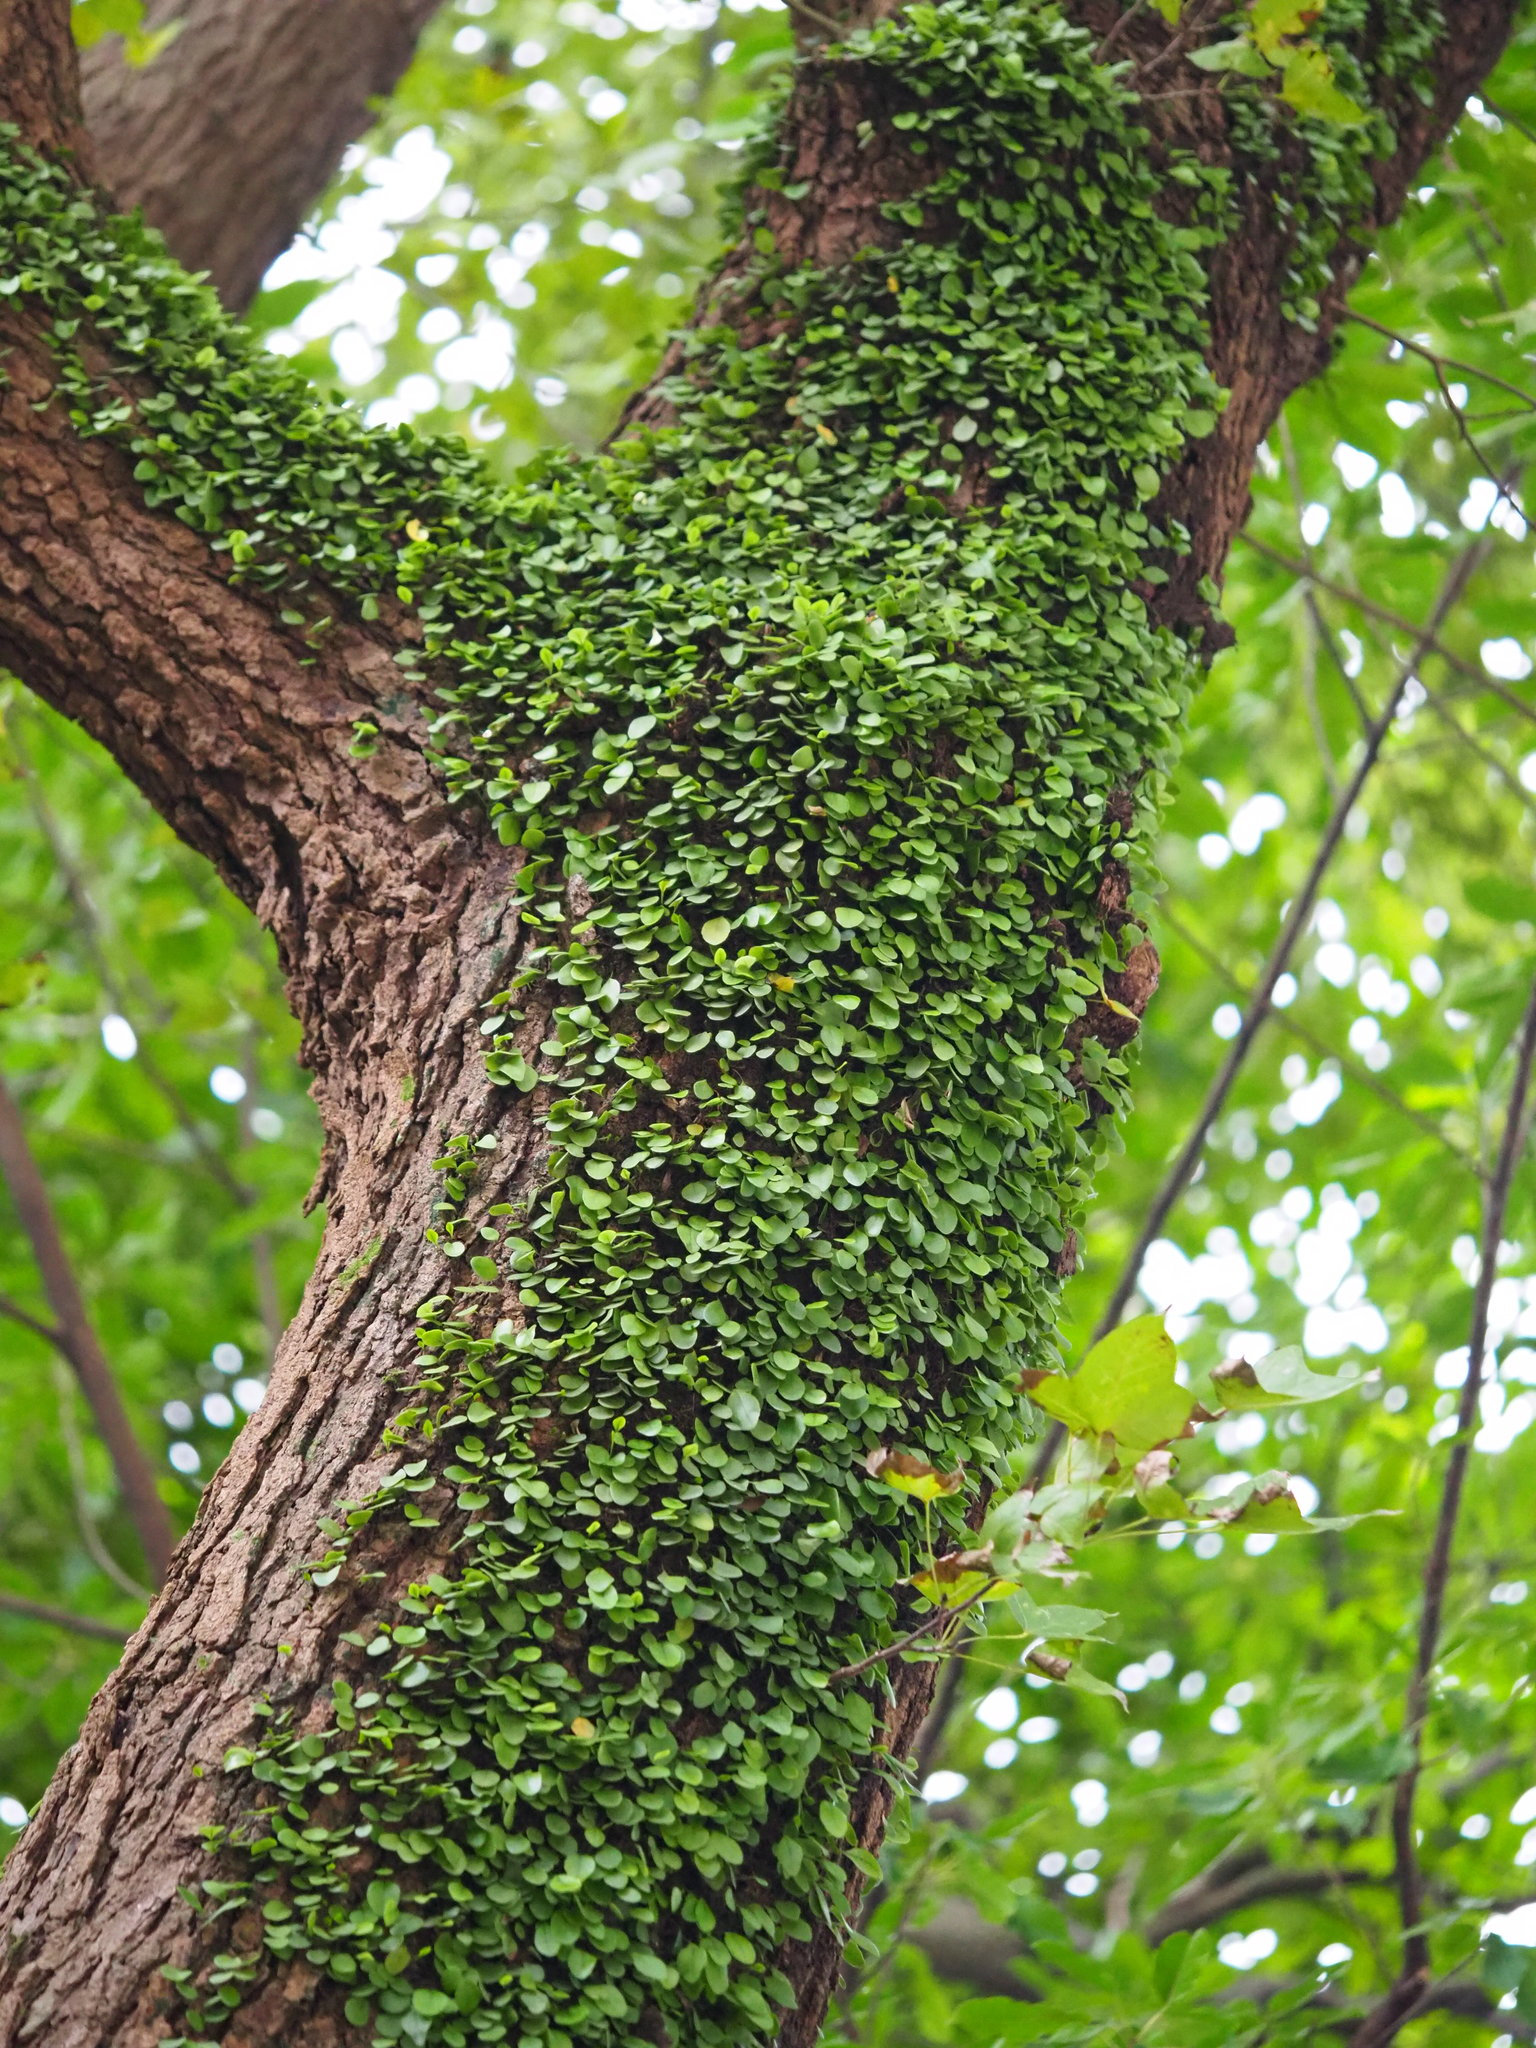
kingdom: Plantae
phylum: Tracheophyta
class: Polypodiopsida
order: Polypodiales
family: Polypodiaceae
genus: Lepisorus
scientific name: Lepisorus microphyllus
